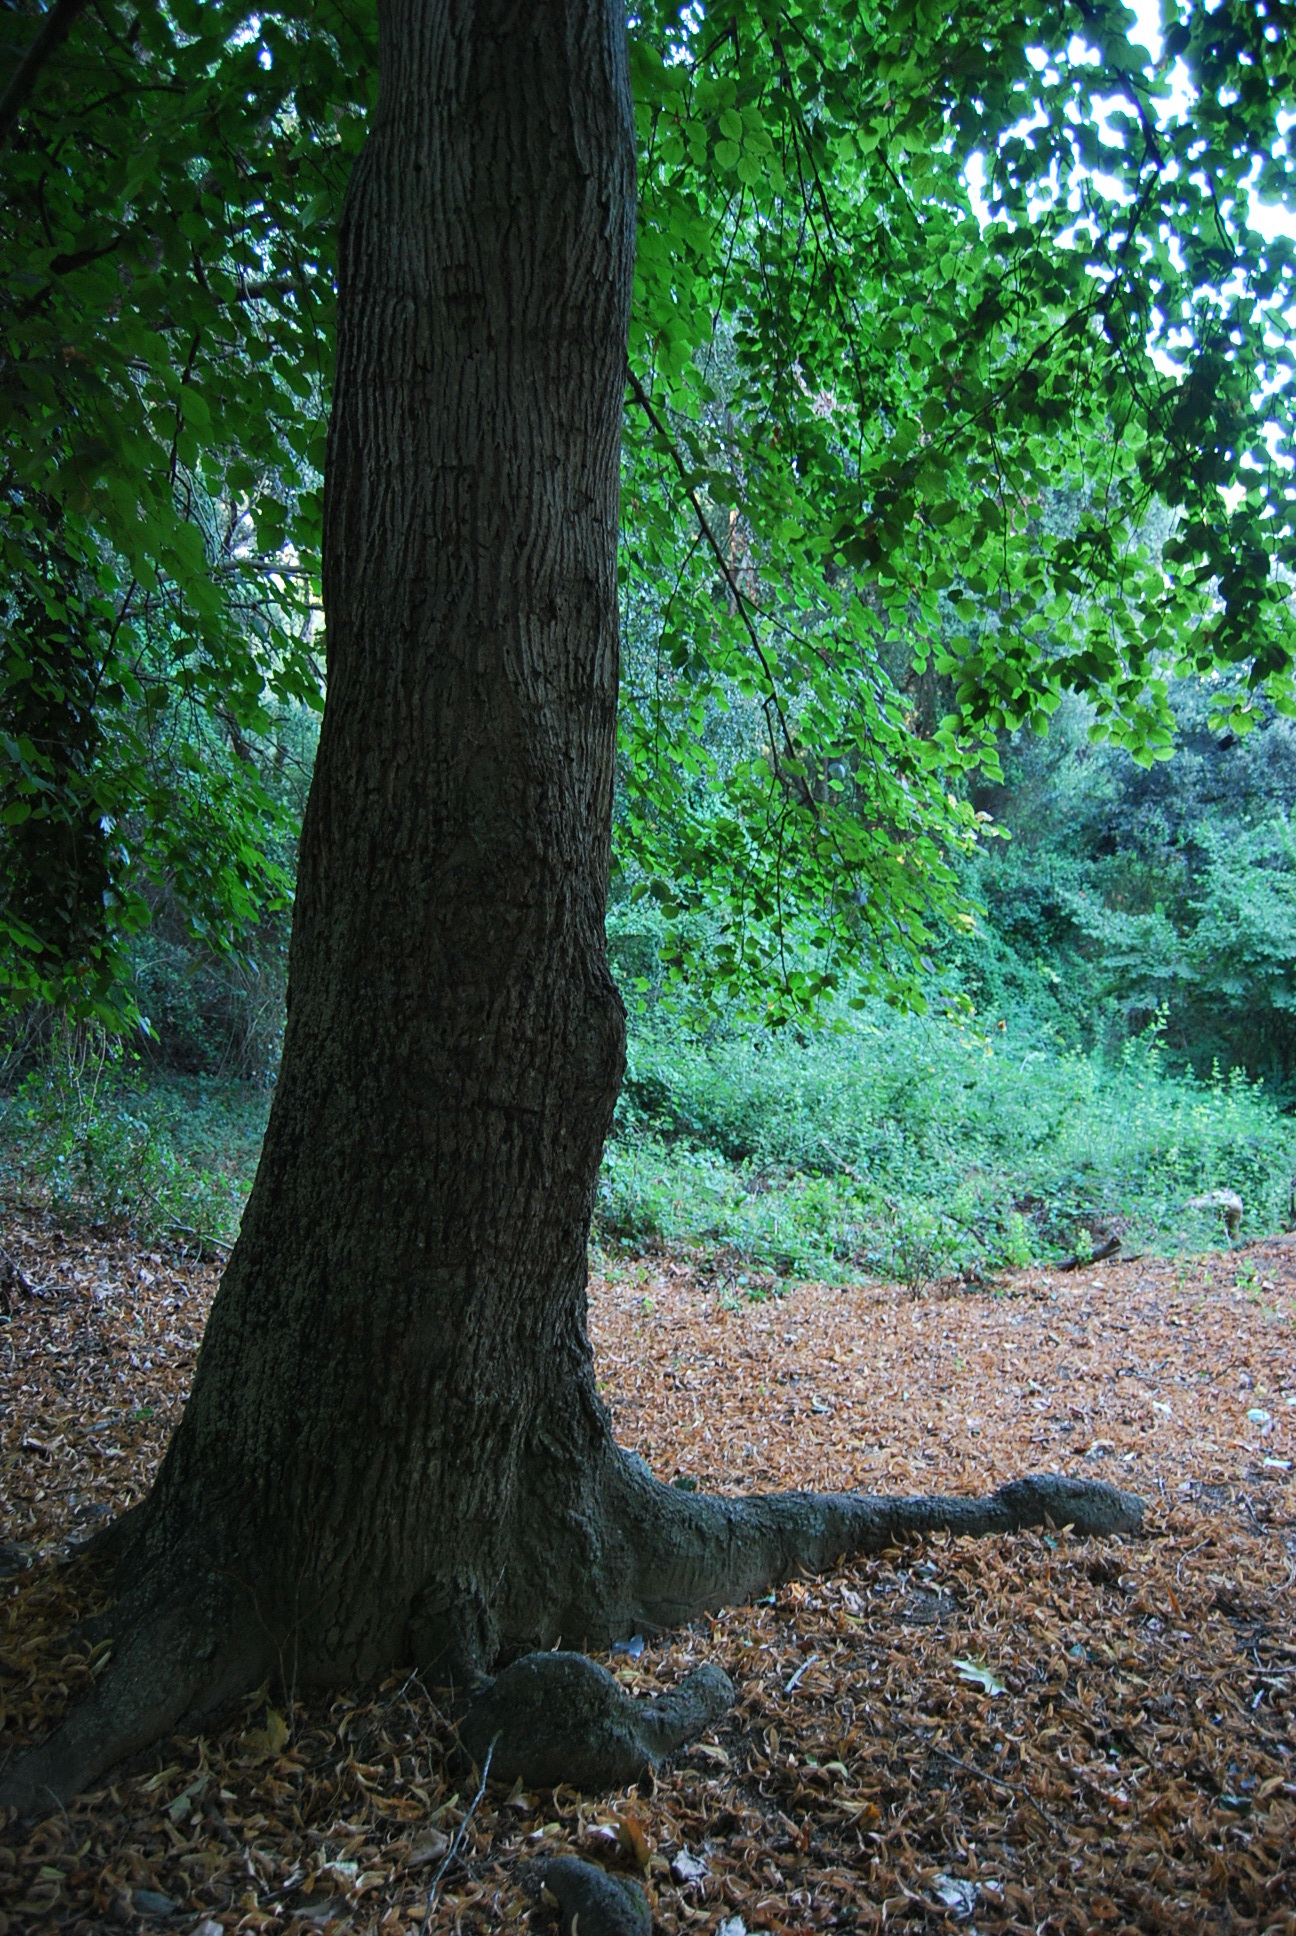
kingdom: Plantae
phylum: Tracheophyta
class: Magnoliopsida
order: Malvales
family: Malvaceae
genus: Tilia
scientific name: Tilia cordata
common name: Small-leaved lime
